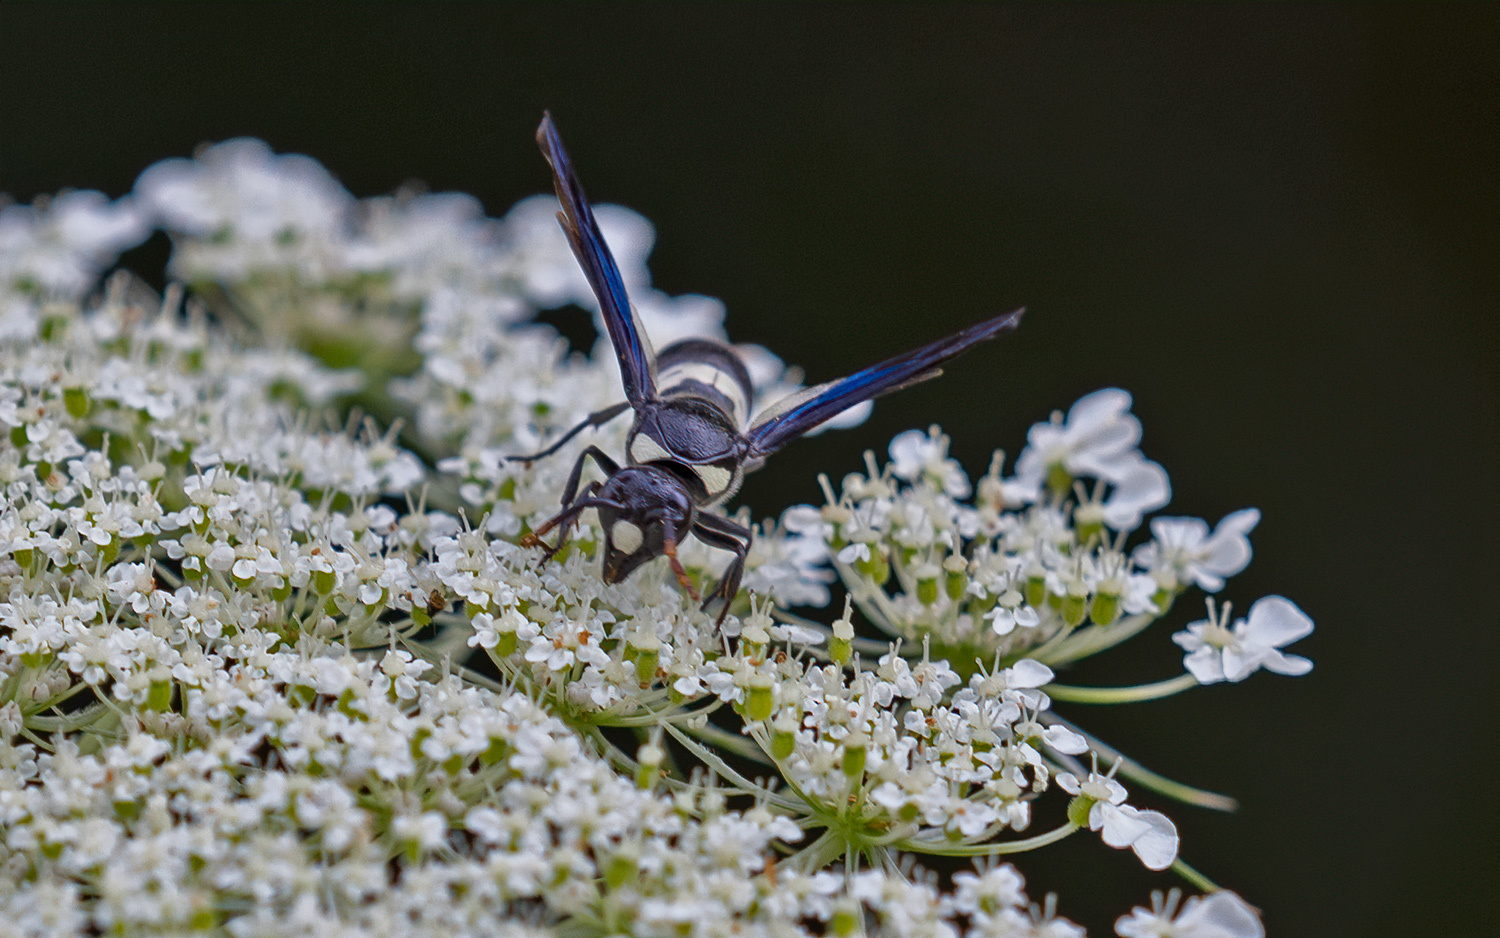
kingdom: Animalia
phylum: Arthropoda
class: Insecta
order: Hymenoptera
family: Eumenidae
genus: Monobia
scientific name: Monobia quadridens
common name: Four-toothed mason wasp
